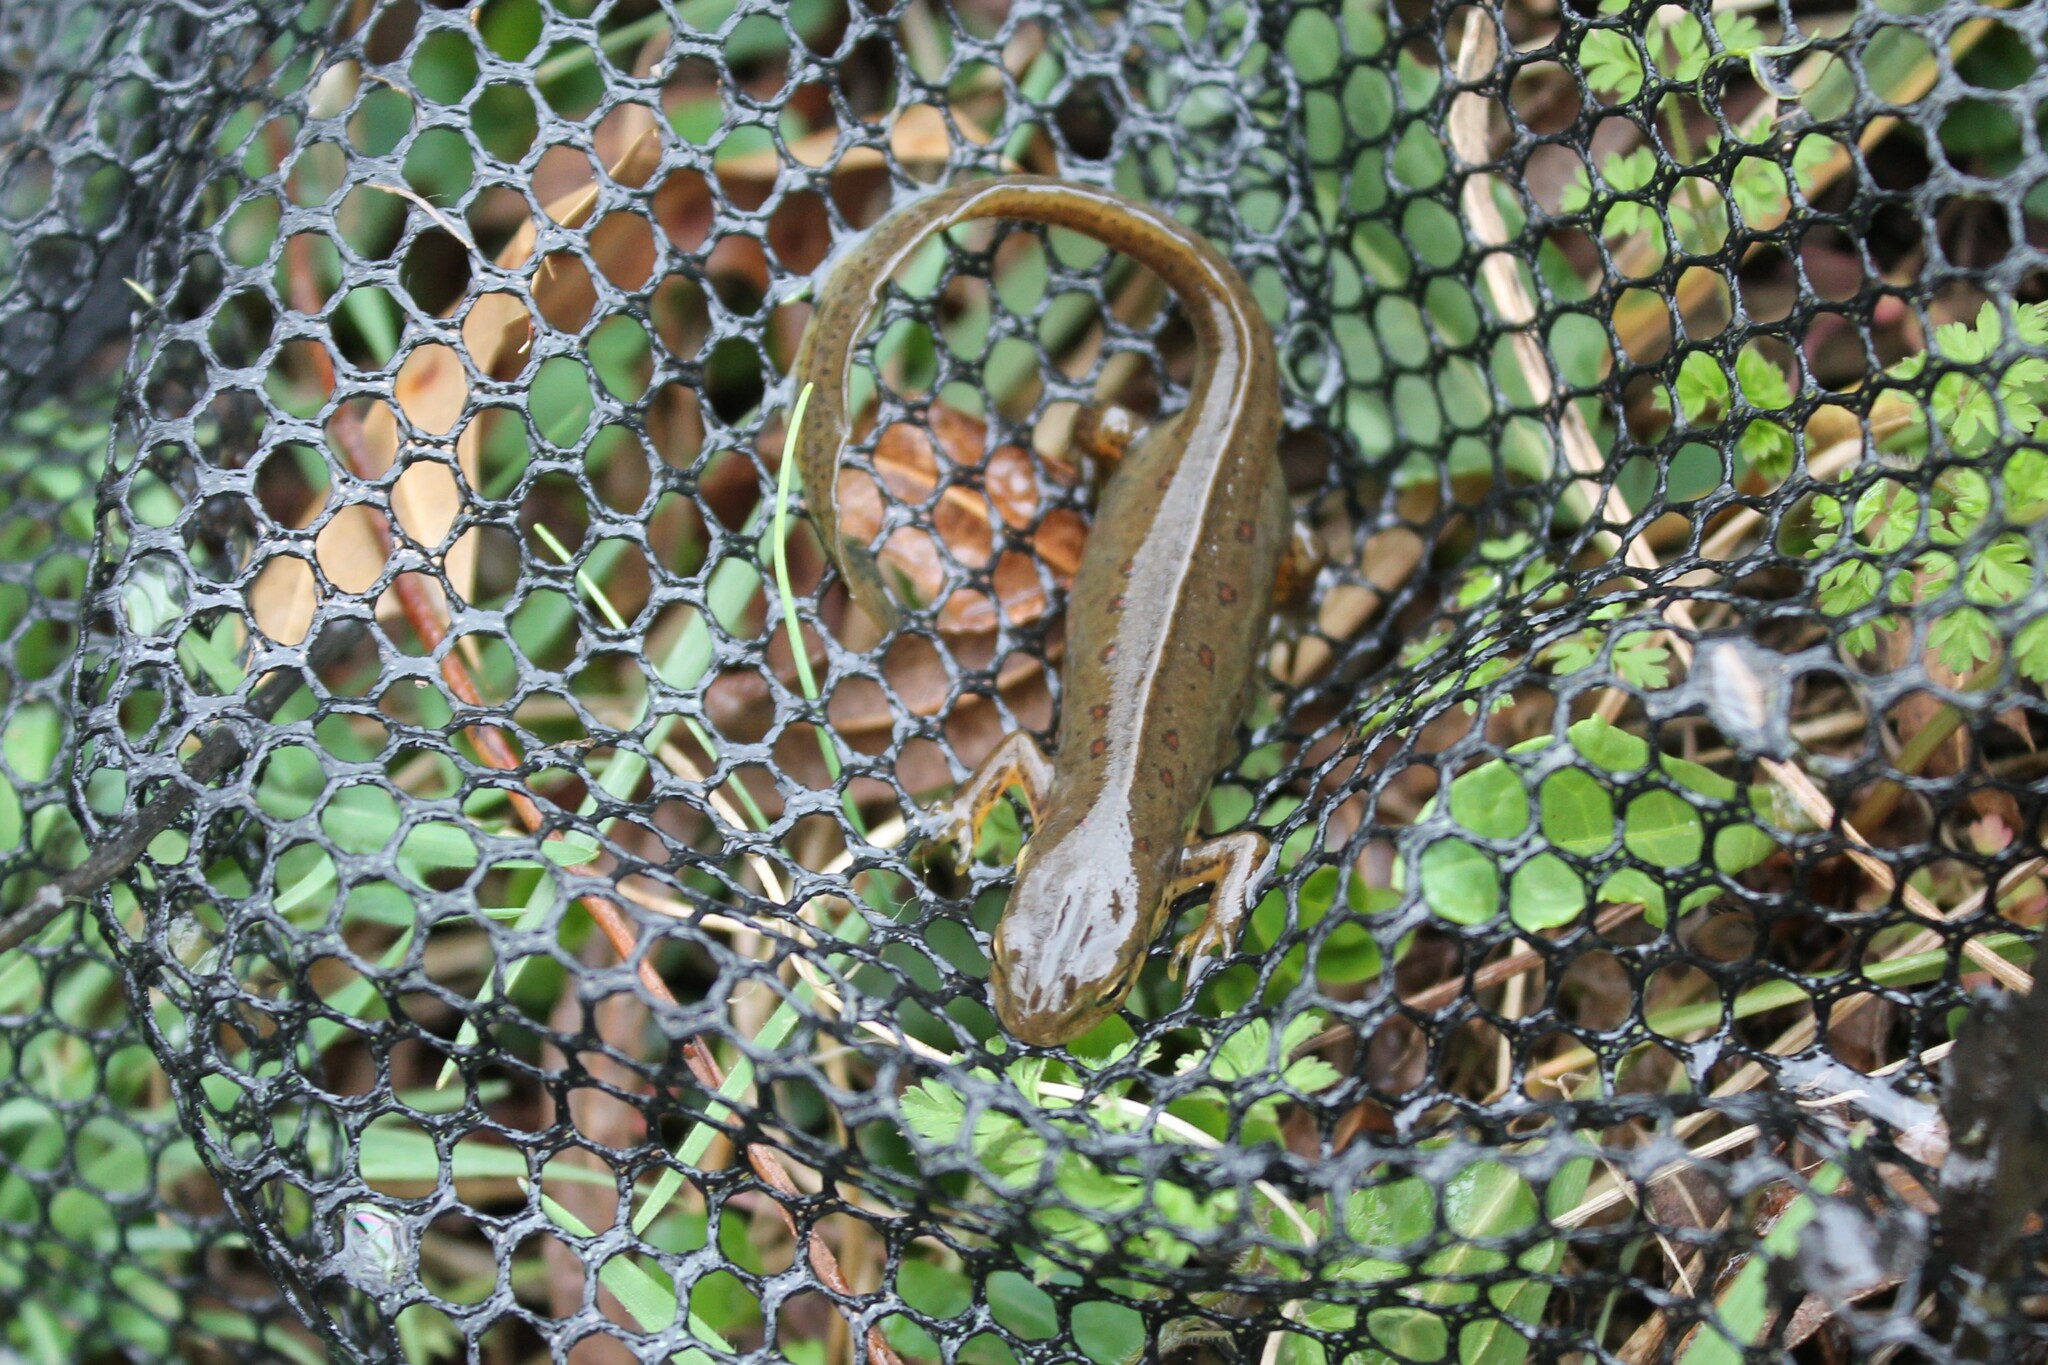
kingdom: Animalia
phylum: Chordata
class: Amphibia
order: Caudata
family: Salamandridae
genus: Notophthalmus
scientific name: Notophthalmus viridescens
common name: Eastern newt
